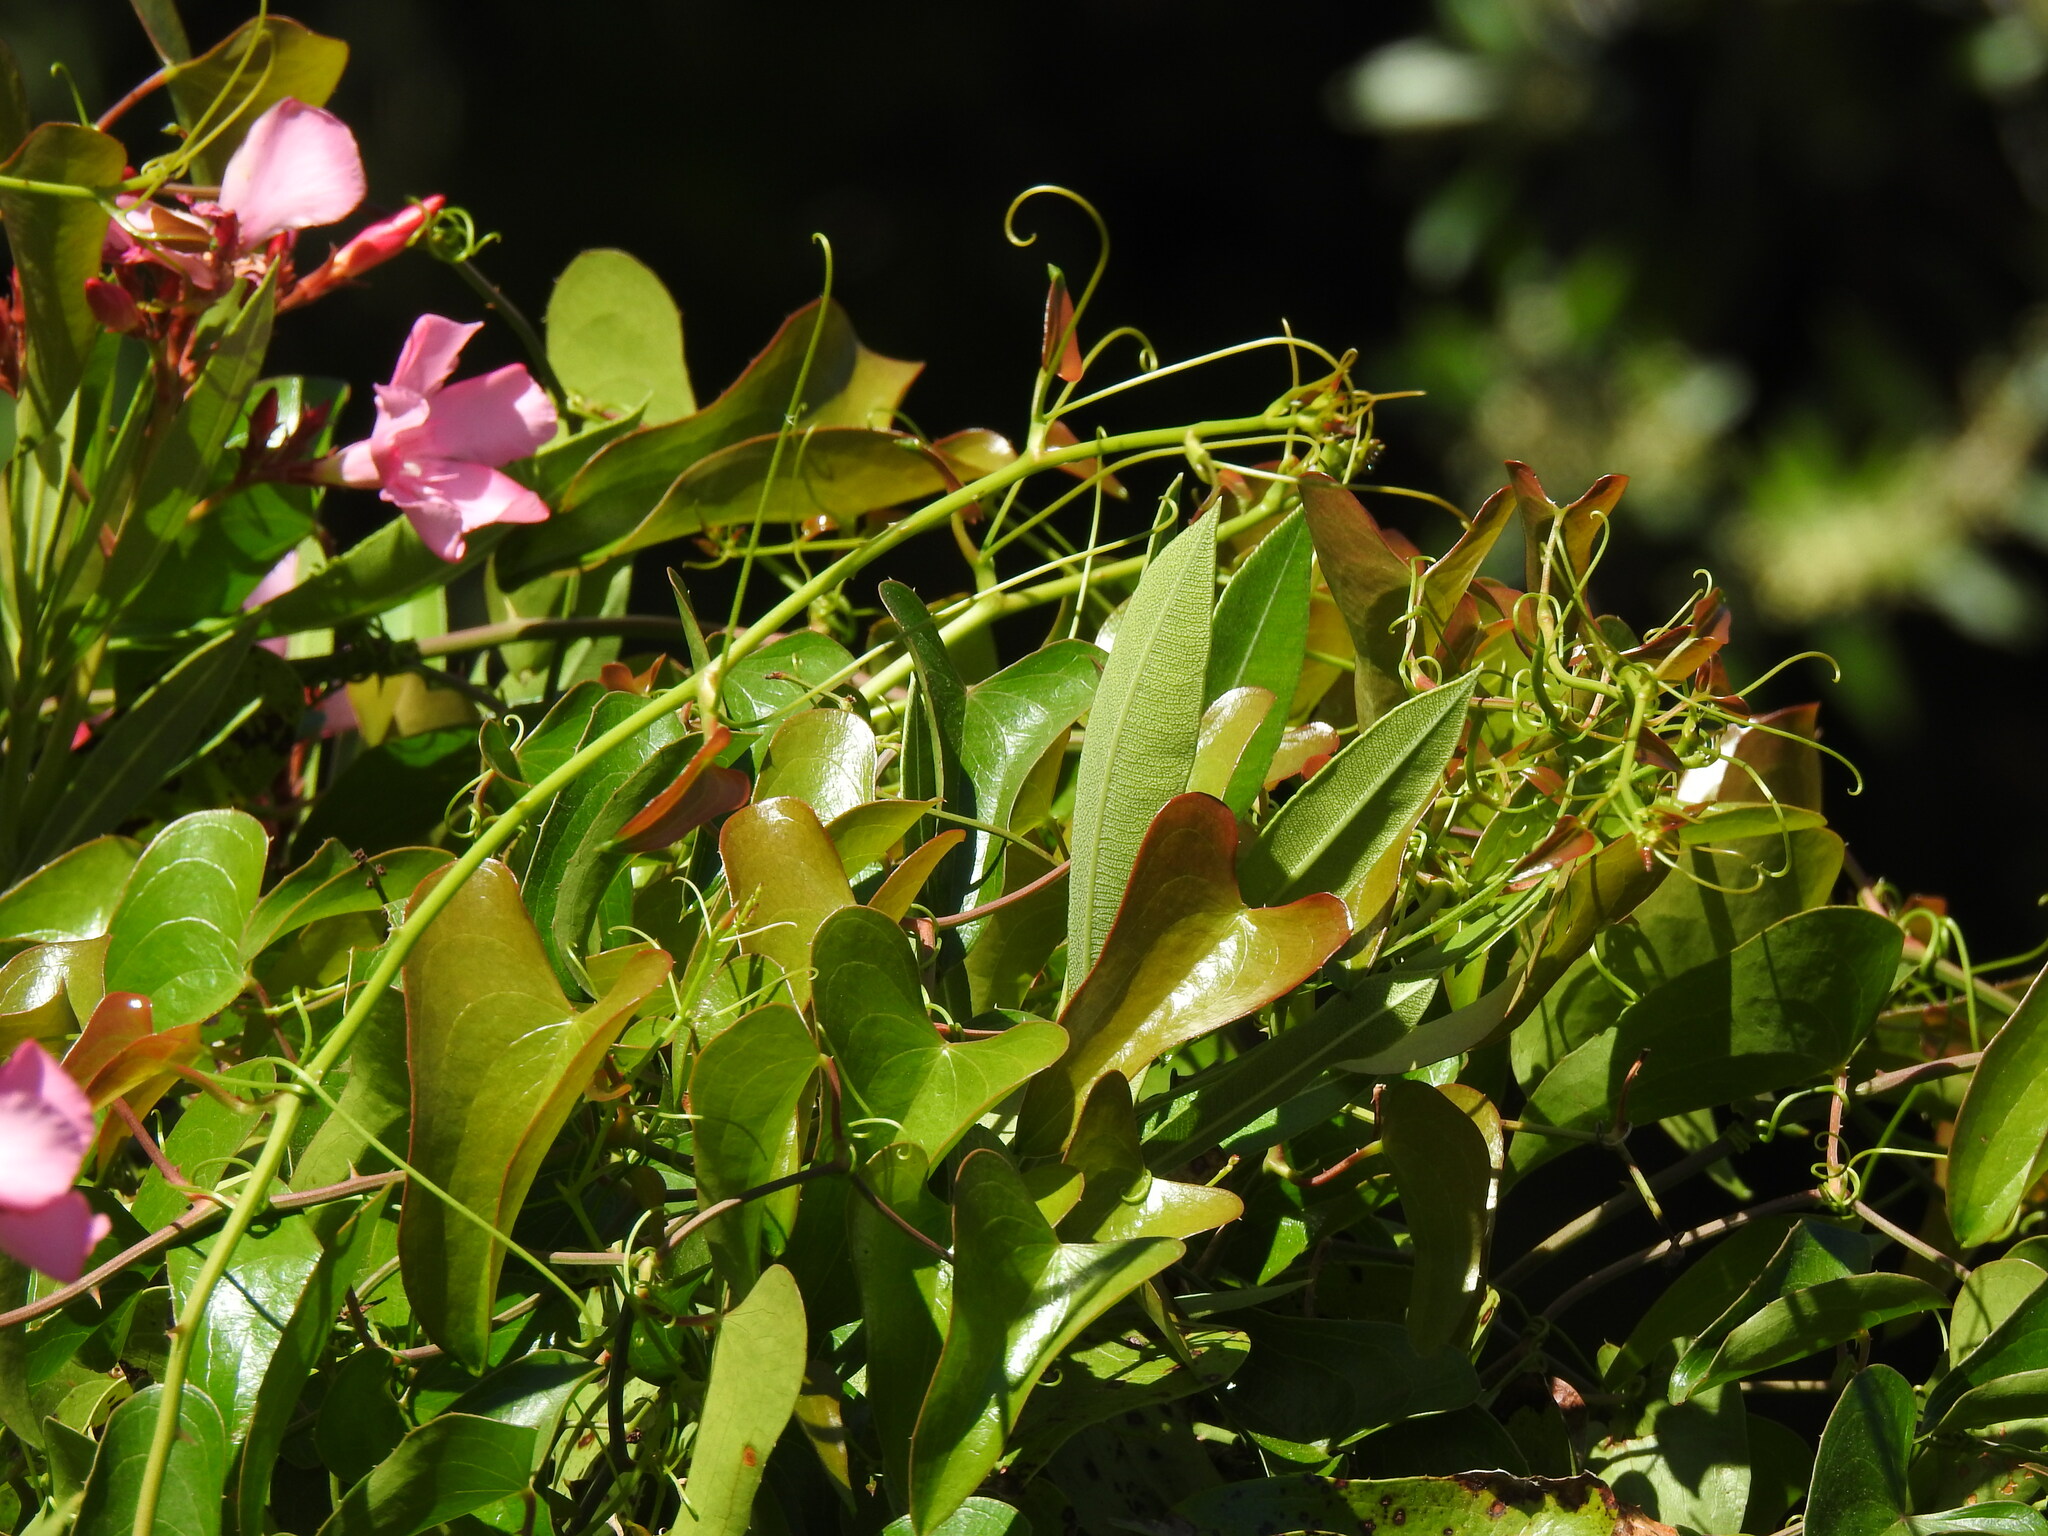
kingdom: Plantae
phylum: Tracheophyta
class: Liliopsida
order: Liliales
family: Smilacaceae
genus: Smilax
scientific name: Smilax aspera
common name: Common smilax
